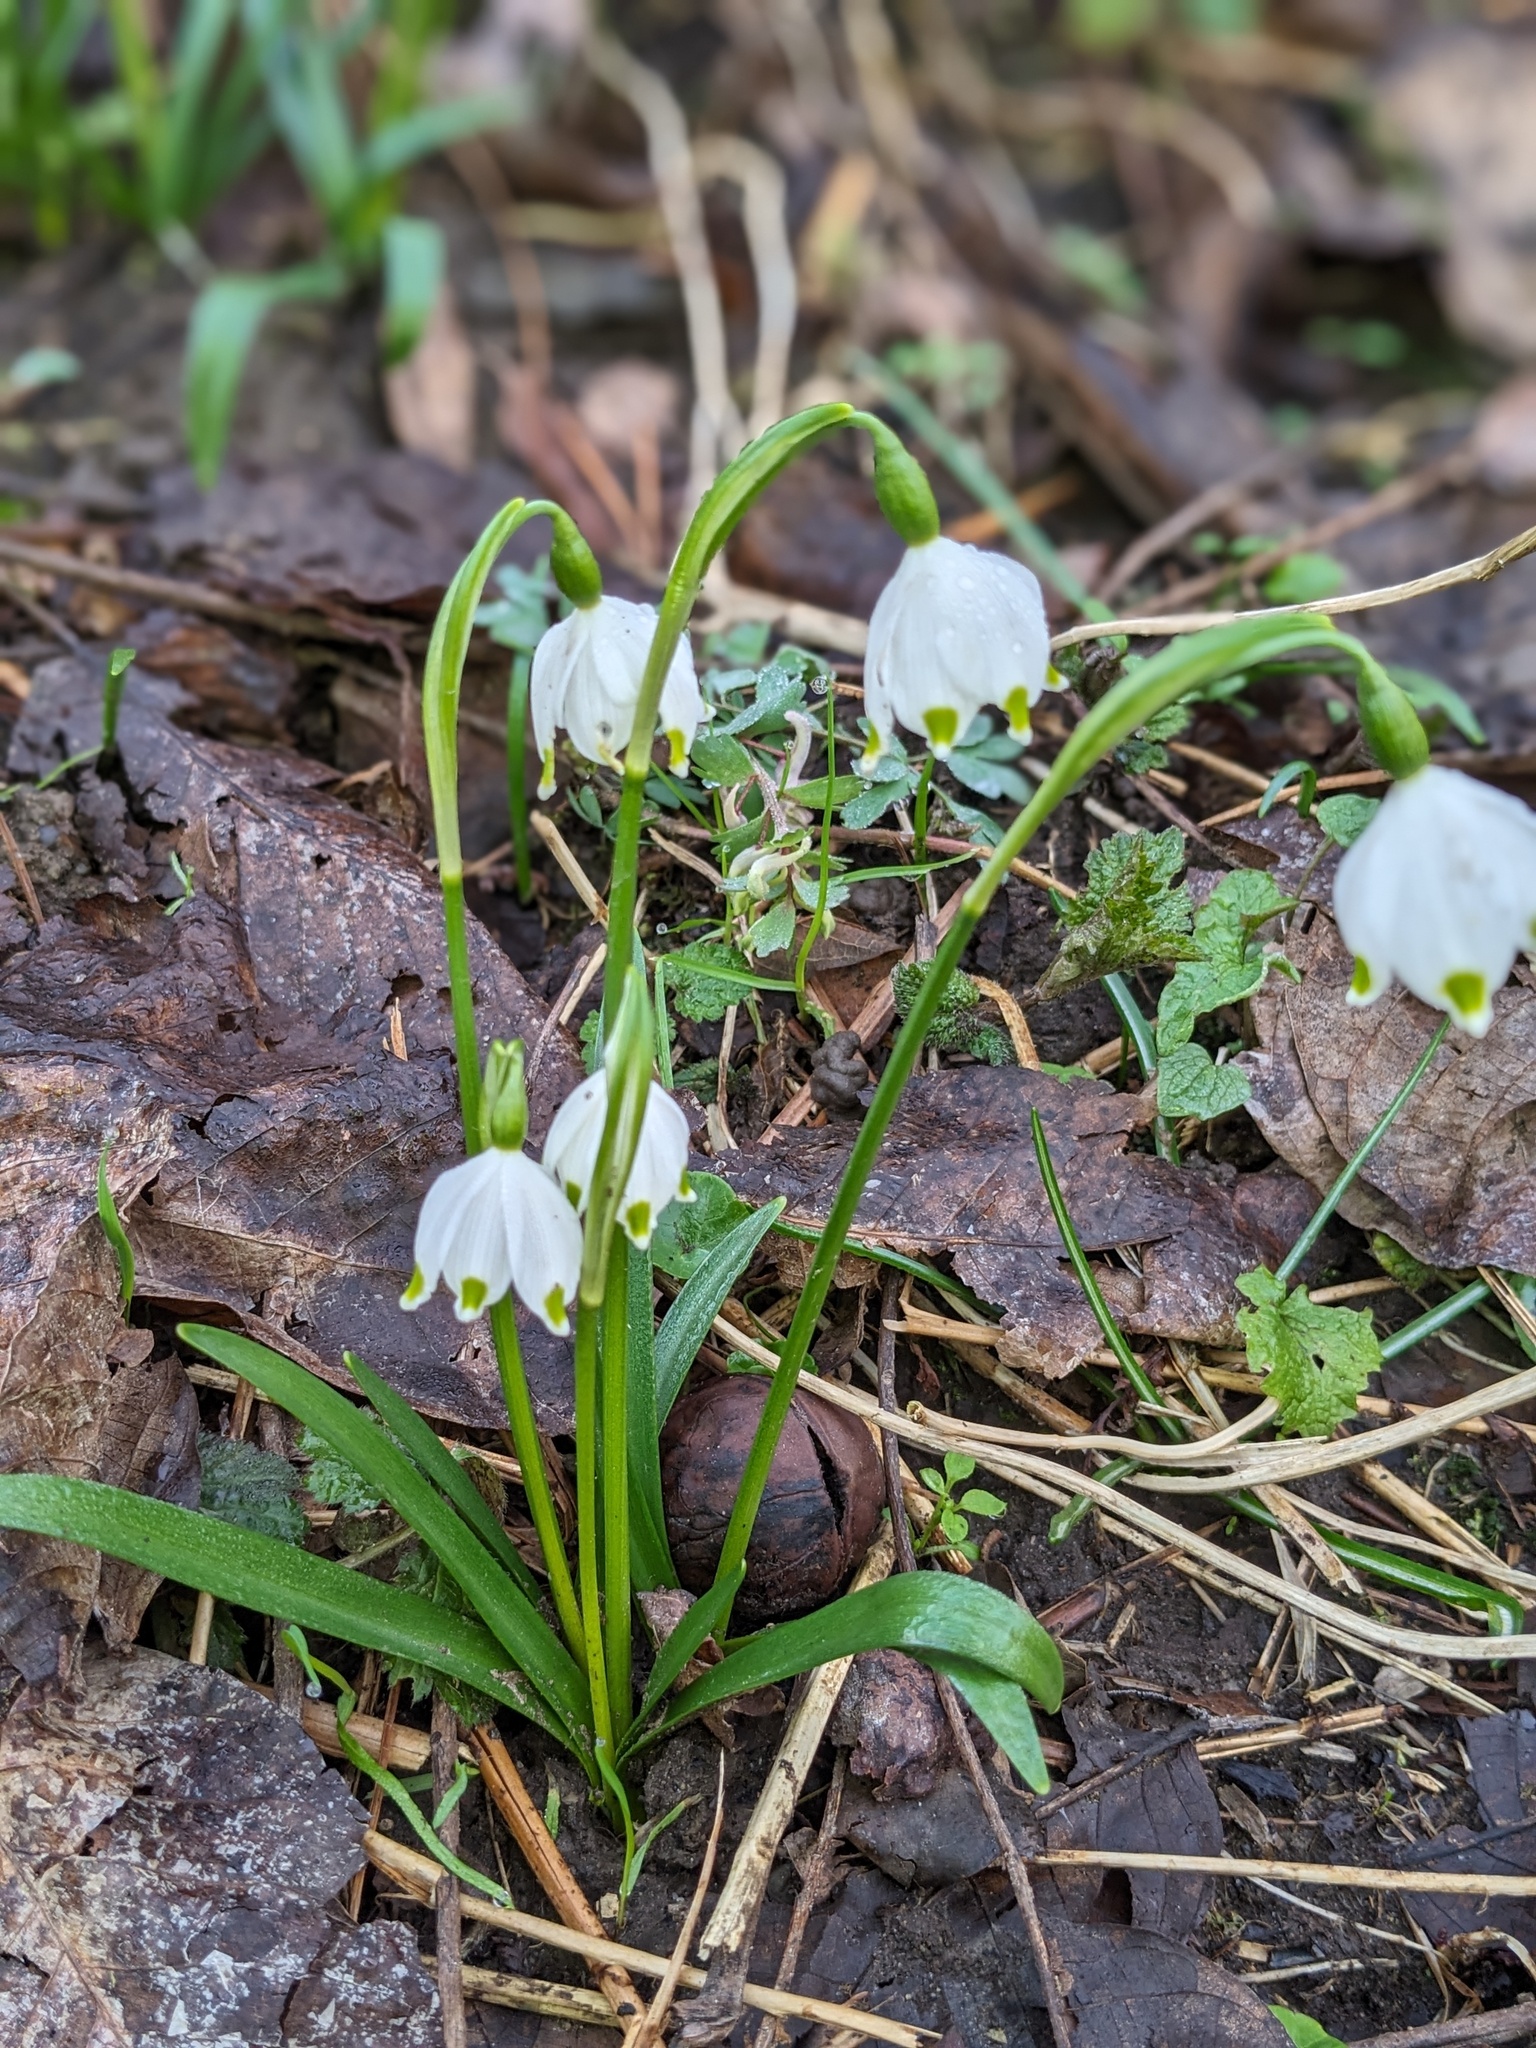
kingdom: Plantae
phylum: Tracheophyta
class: Liliopsida
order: Asparagales
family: Amaryllidaceae
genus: Leucojum
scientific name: Leucojum vernum
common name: Spring snowflake
